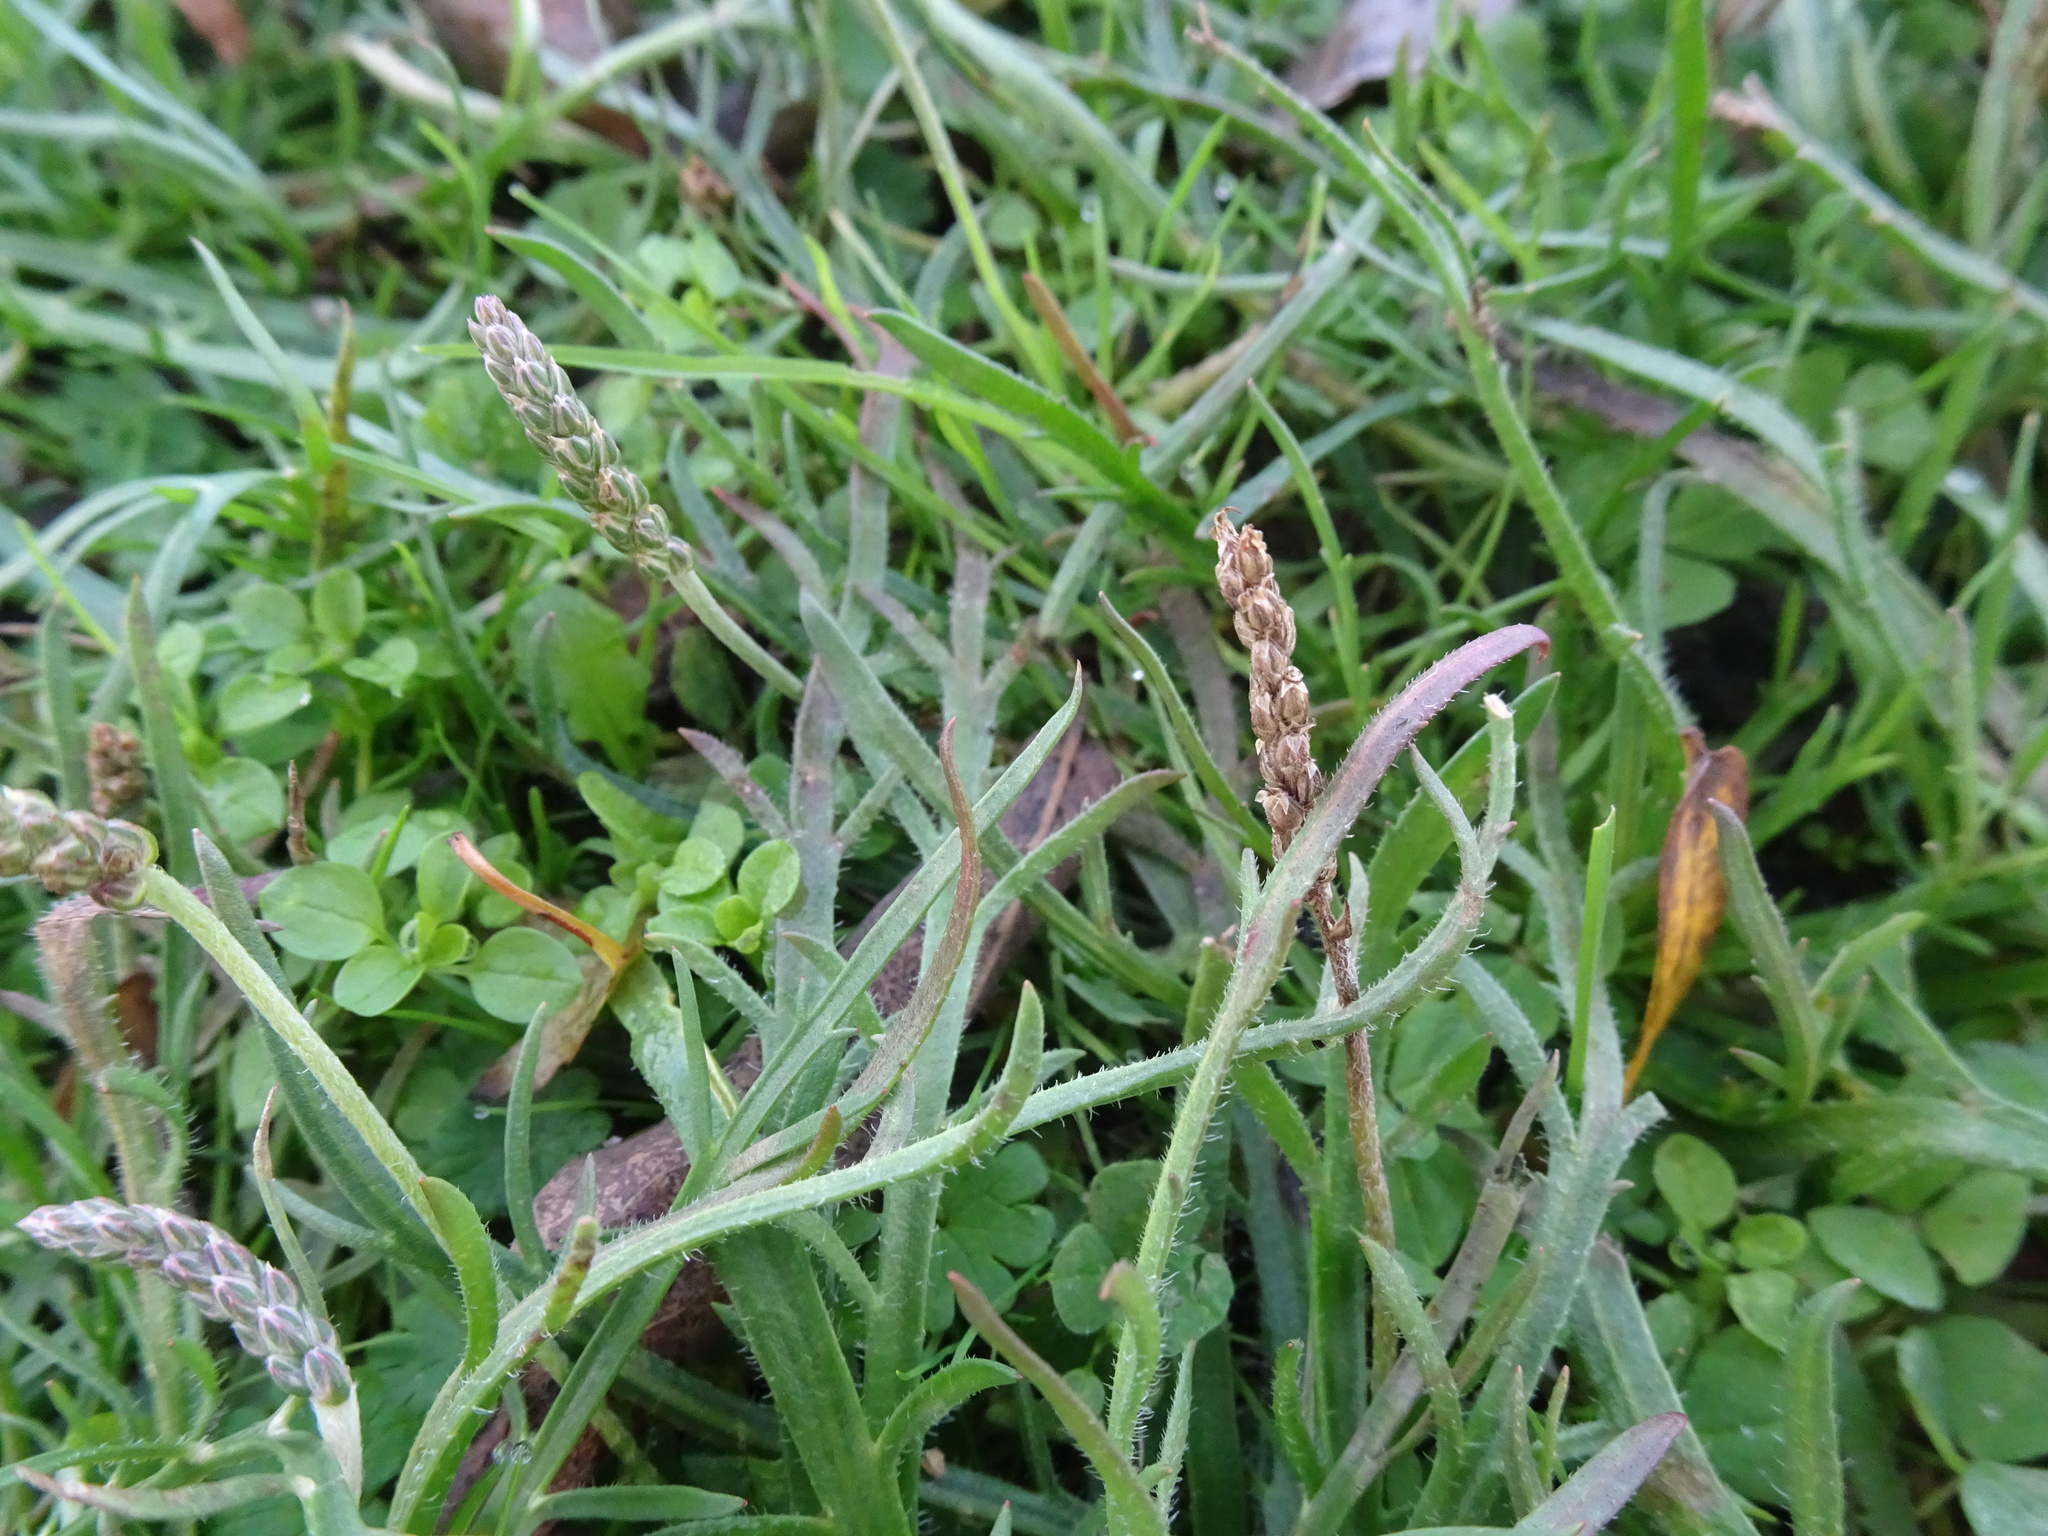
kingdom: Plantae
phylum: Tracheophyta
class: Magnoliopsida
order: Lamiales
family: Plantaginaceae
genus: Plantago
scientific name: Plantago coronopus
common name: Buck's-horn plantain
